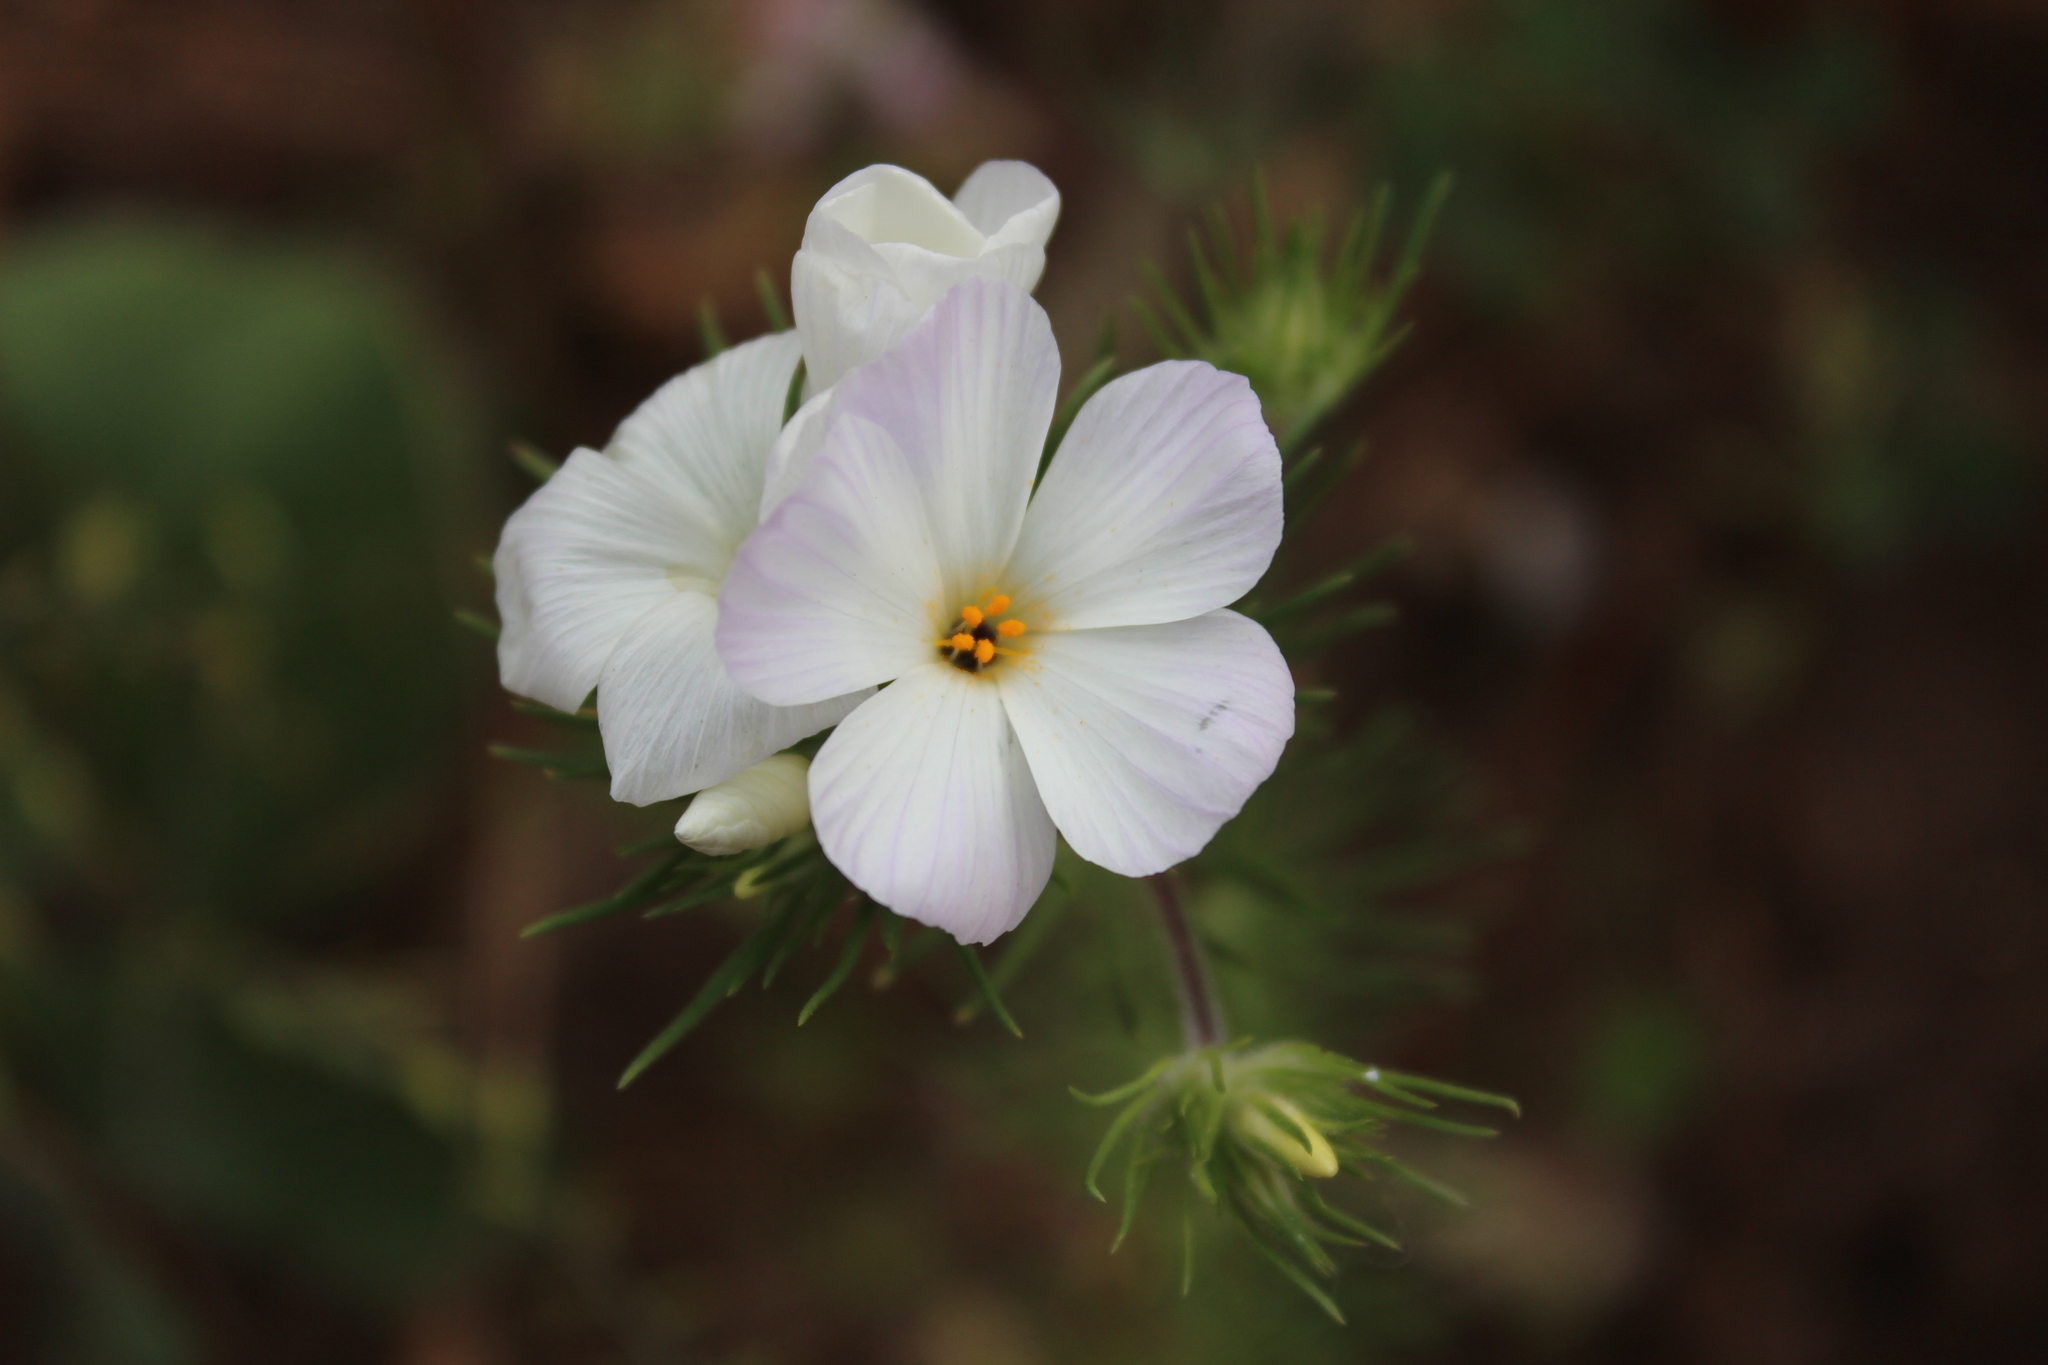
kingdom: Plantae
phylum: Tracheophyta
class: Magnoliopsida
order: Ericales
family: Polemoniaceae
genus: Leptosiphon
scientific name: Leptosiphon grandiflorus
